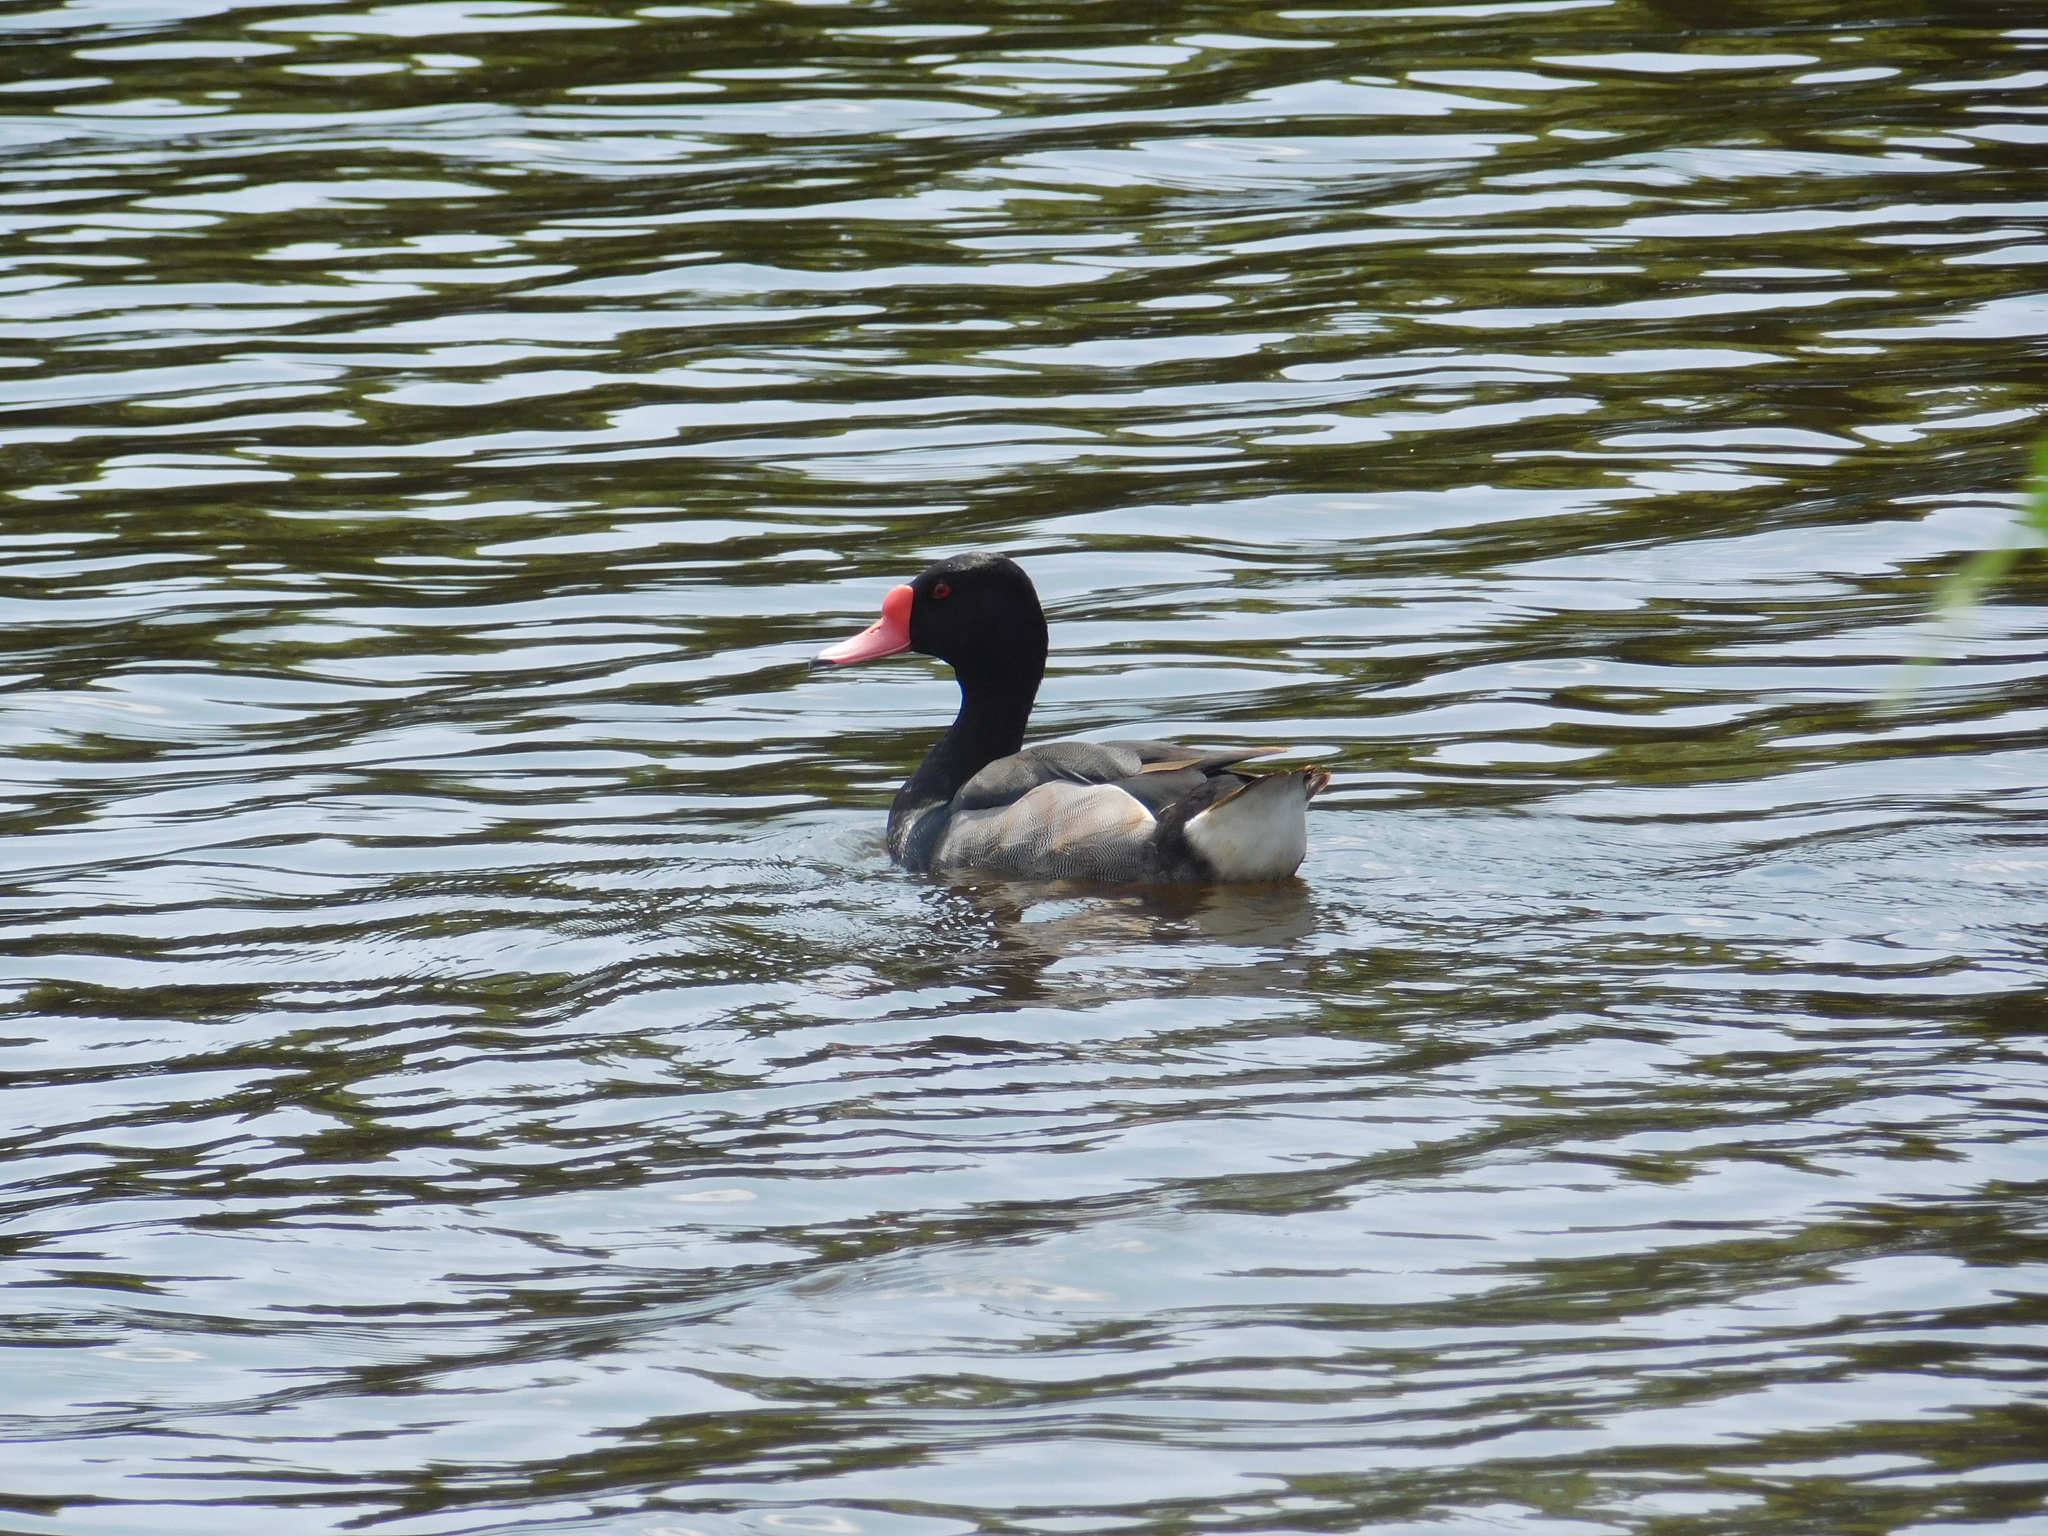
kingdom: Animalia
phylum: Chordata
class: Aves
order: Anseriformes
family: Anatidae
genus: Netta
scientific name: Netta peposaca
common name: Rosy-billed pochard
